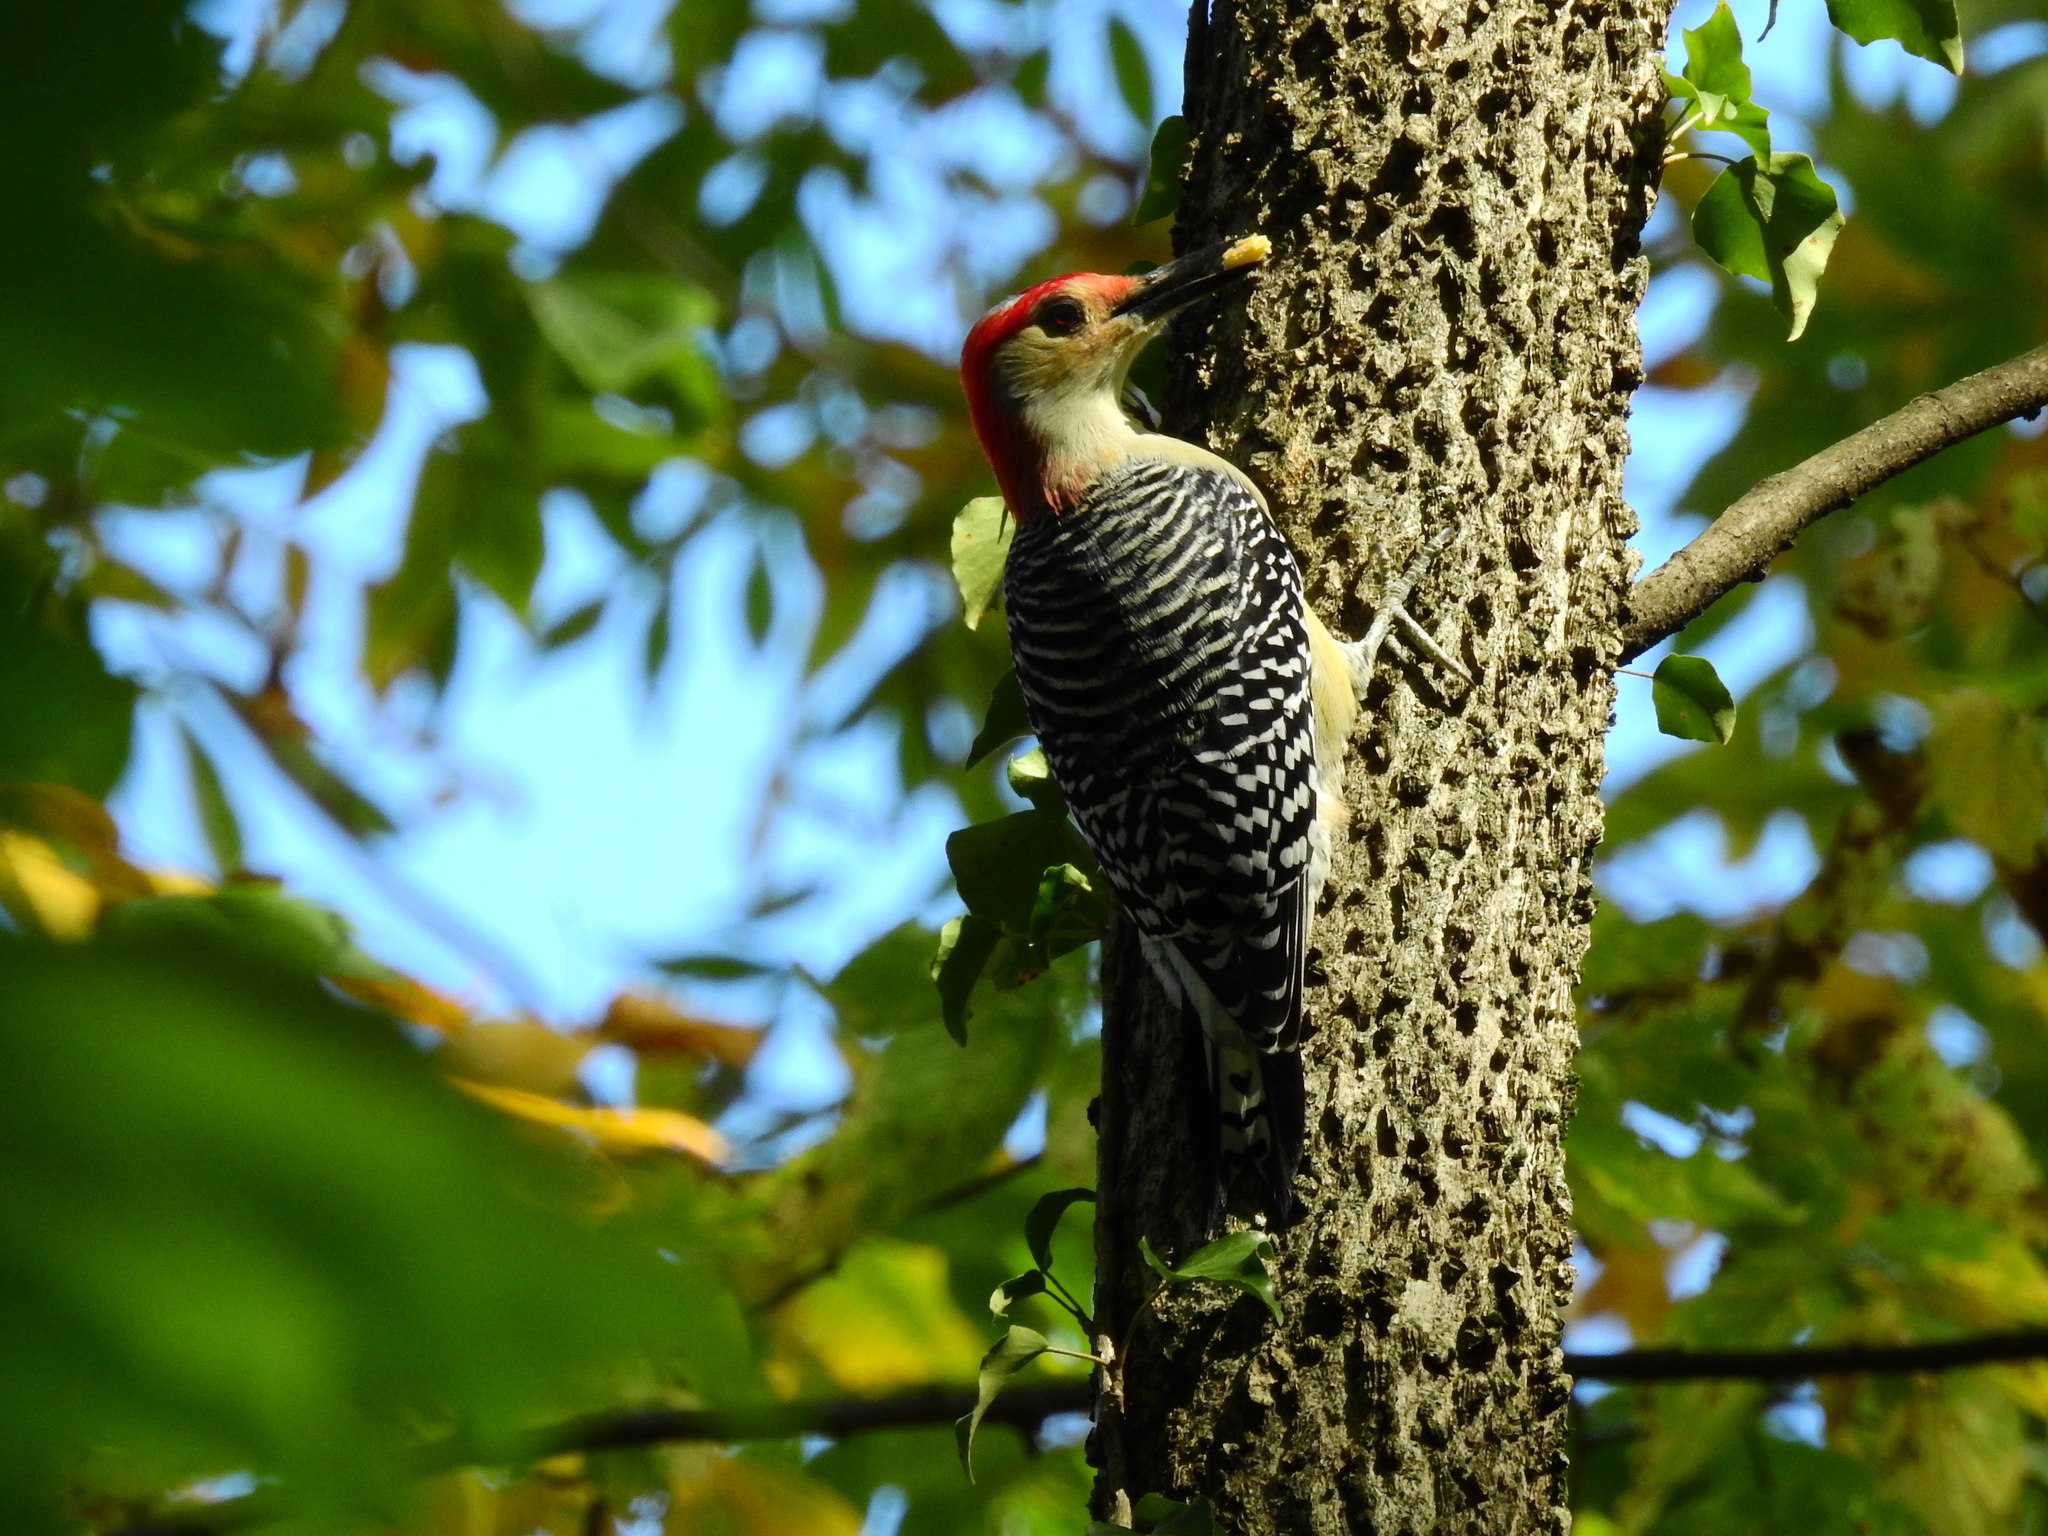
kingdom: Animalia
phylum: Chordata
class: Aves
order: Piciformes
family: Picidae
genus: Melanerpes
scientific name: Melanerpes carolinus
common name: Red-bellied woodpecker
